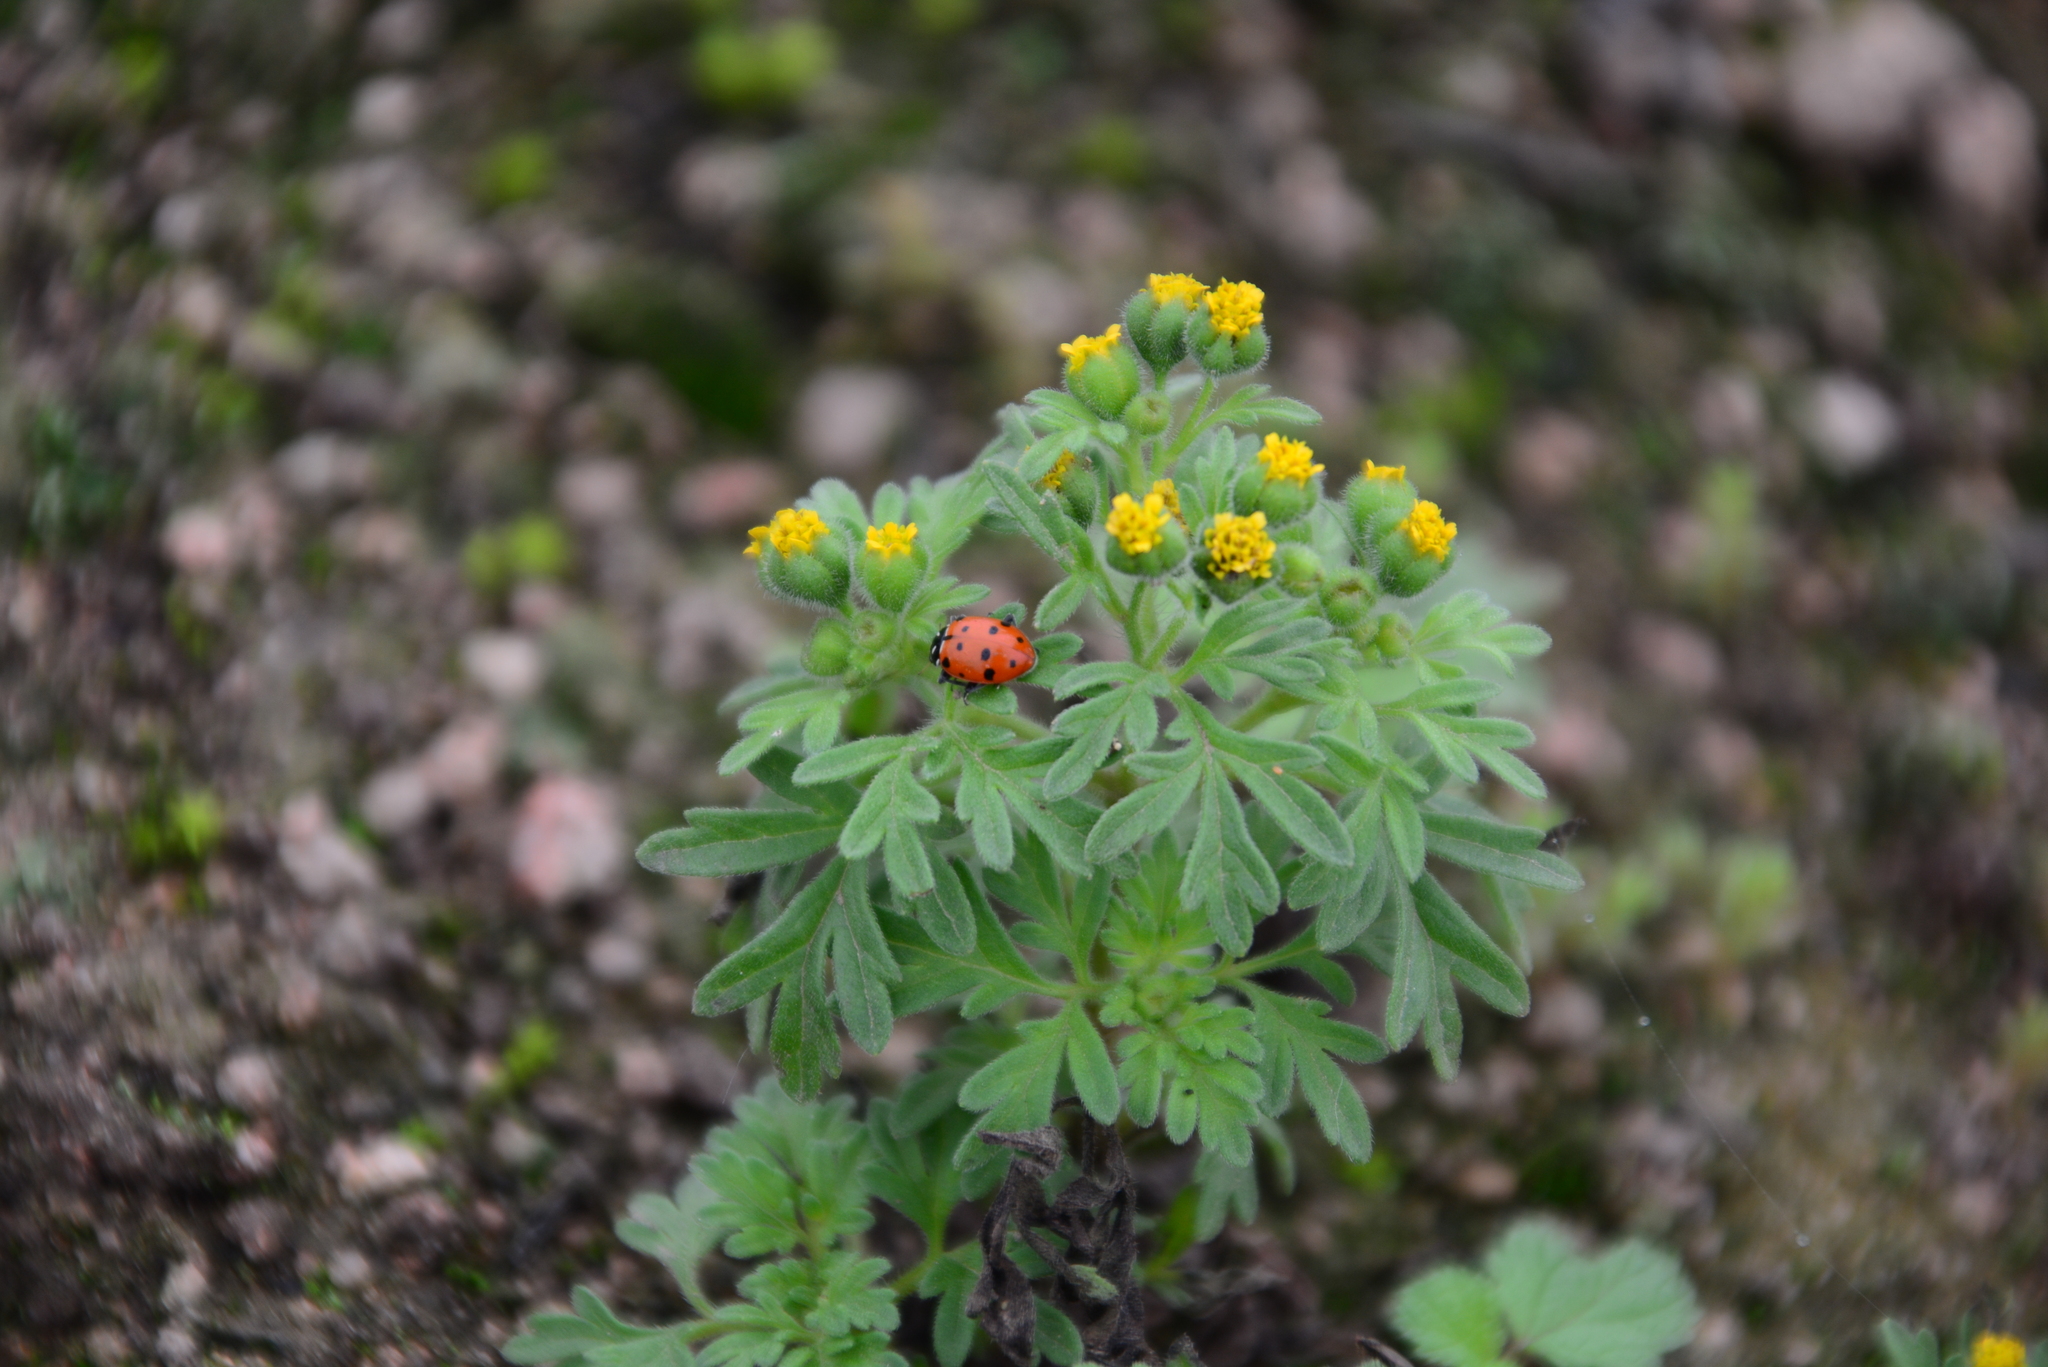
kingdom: Animalia
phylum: Arthropoda
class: Insecta
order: Coleoptera
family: Coccinellidae
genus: Hippodamia
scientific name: Hippodamia convergens
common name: Convergent lady beetle
